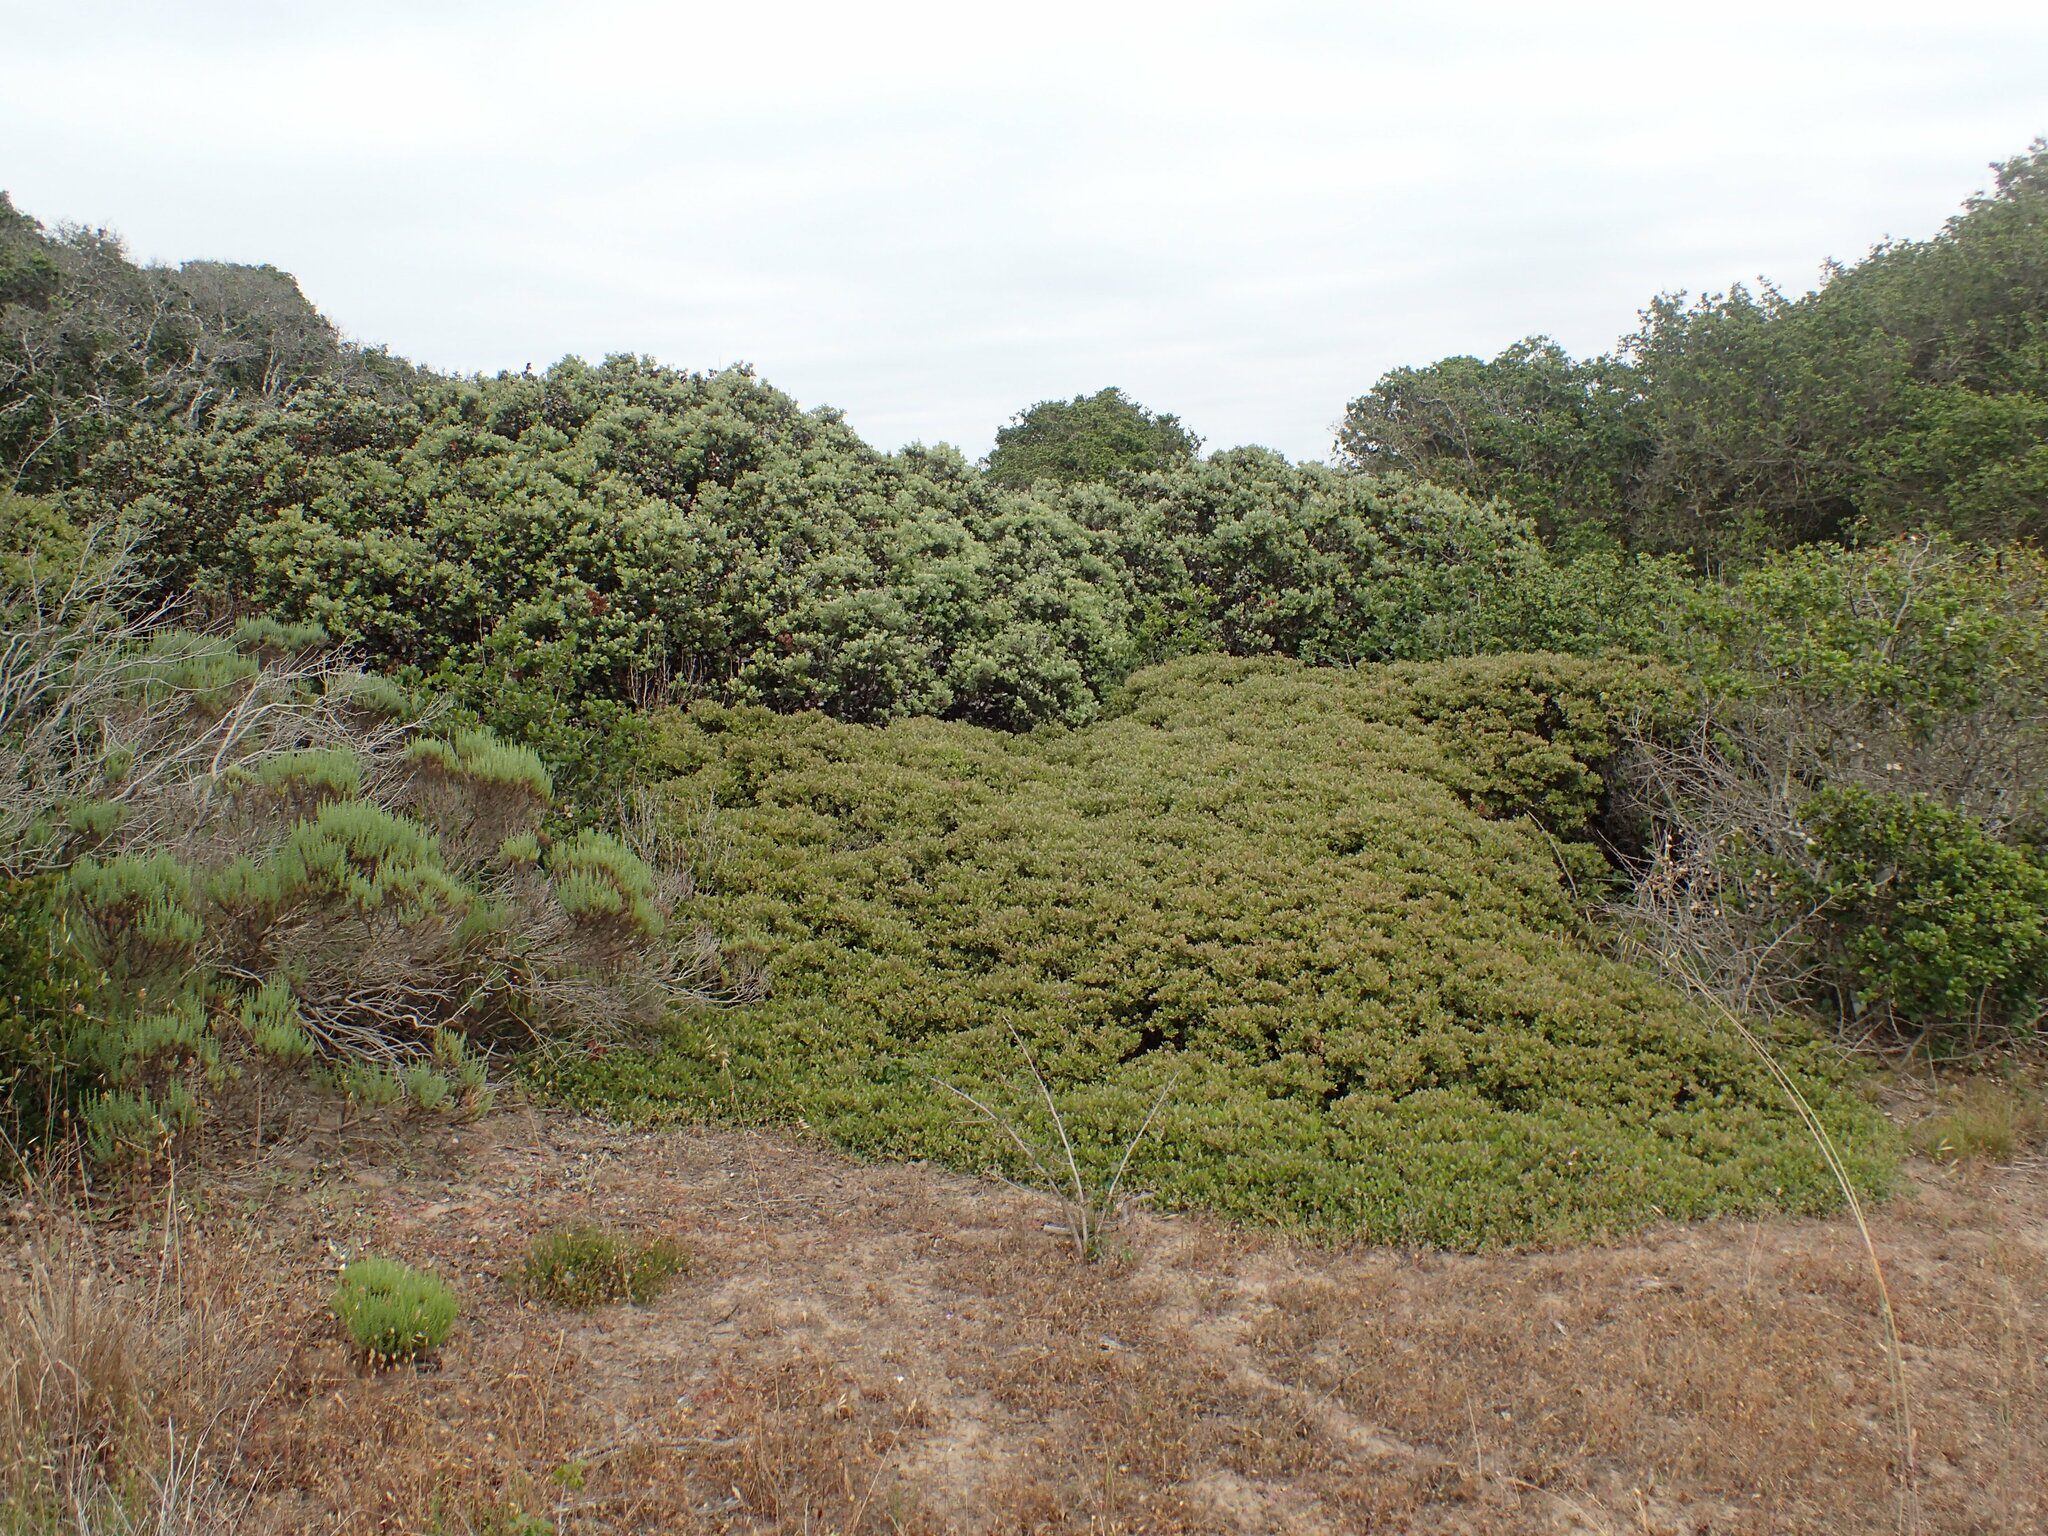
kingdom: Plantae
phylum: Tracheophyta
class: Magnoliopsida
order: Ericales
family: Ericaceae
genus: Arctostaphylos
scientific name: Arctostaphylos pumila
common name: Sandmat manzanita
